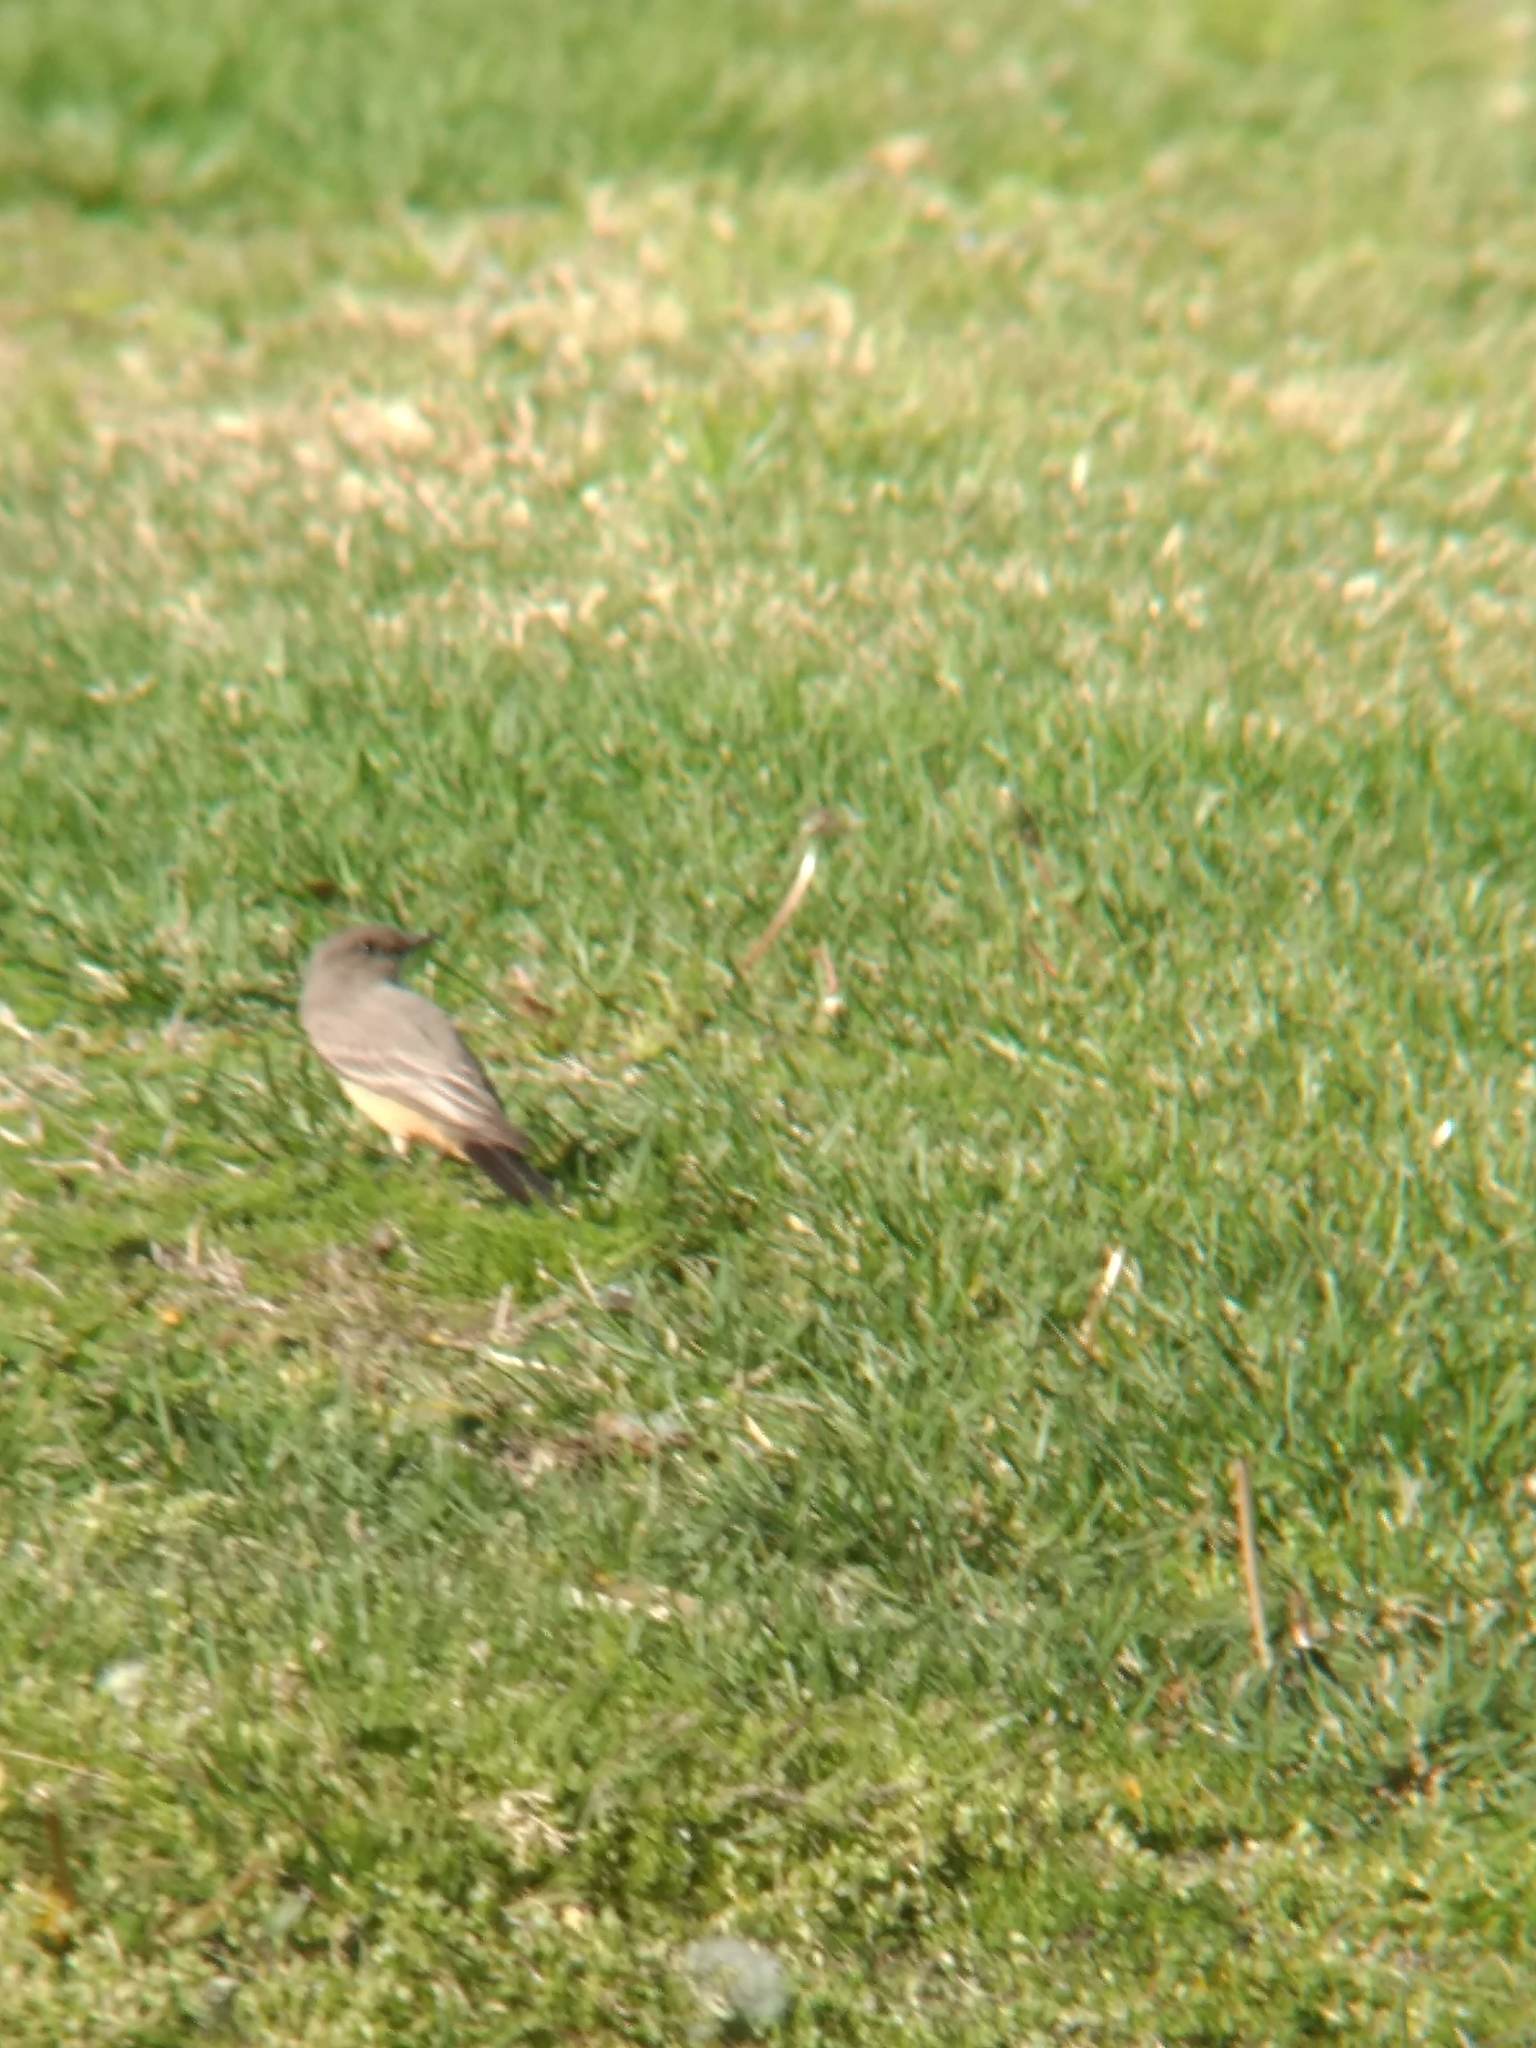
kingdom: Animalia
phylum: Chordata
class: Aves
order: Passeriformes
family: Tyrannidae
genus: Sayornis
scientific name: Sayornis saya
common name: Say's phoebe
